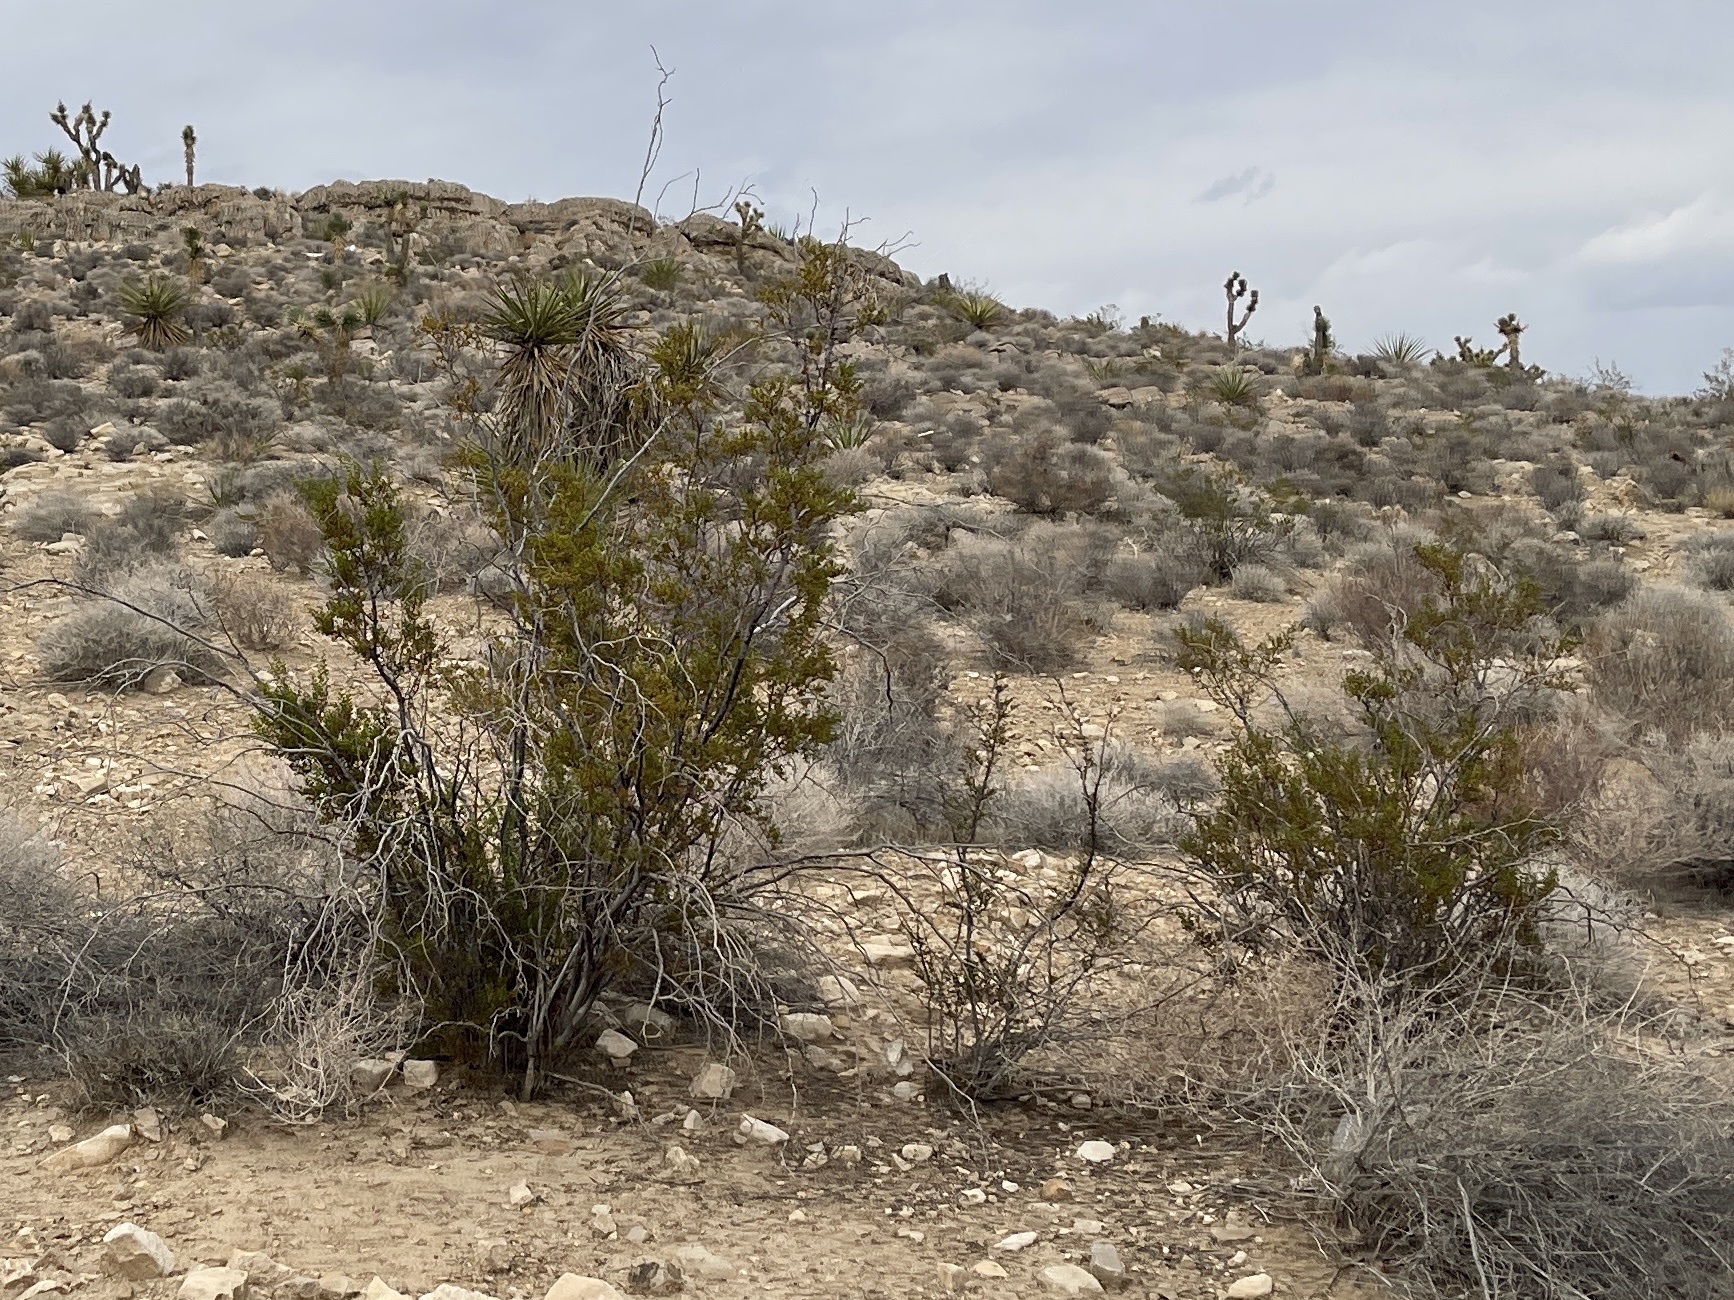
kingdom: Plantae
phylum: Tracheophyta
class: Magnoliopsida
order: Zygophyllales
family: Zygophyllaceae
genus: Larrea
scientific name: Larrea tridentata
